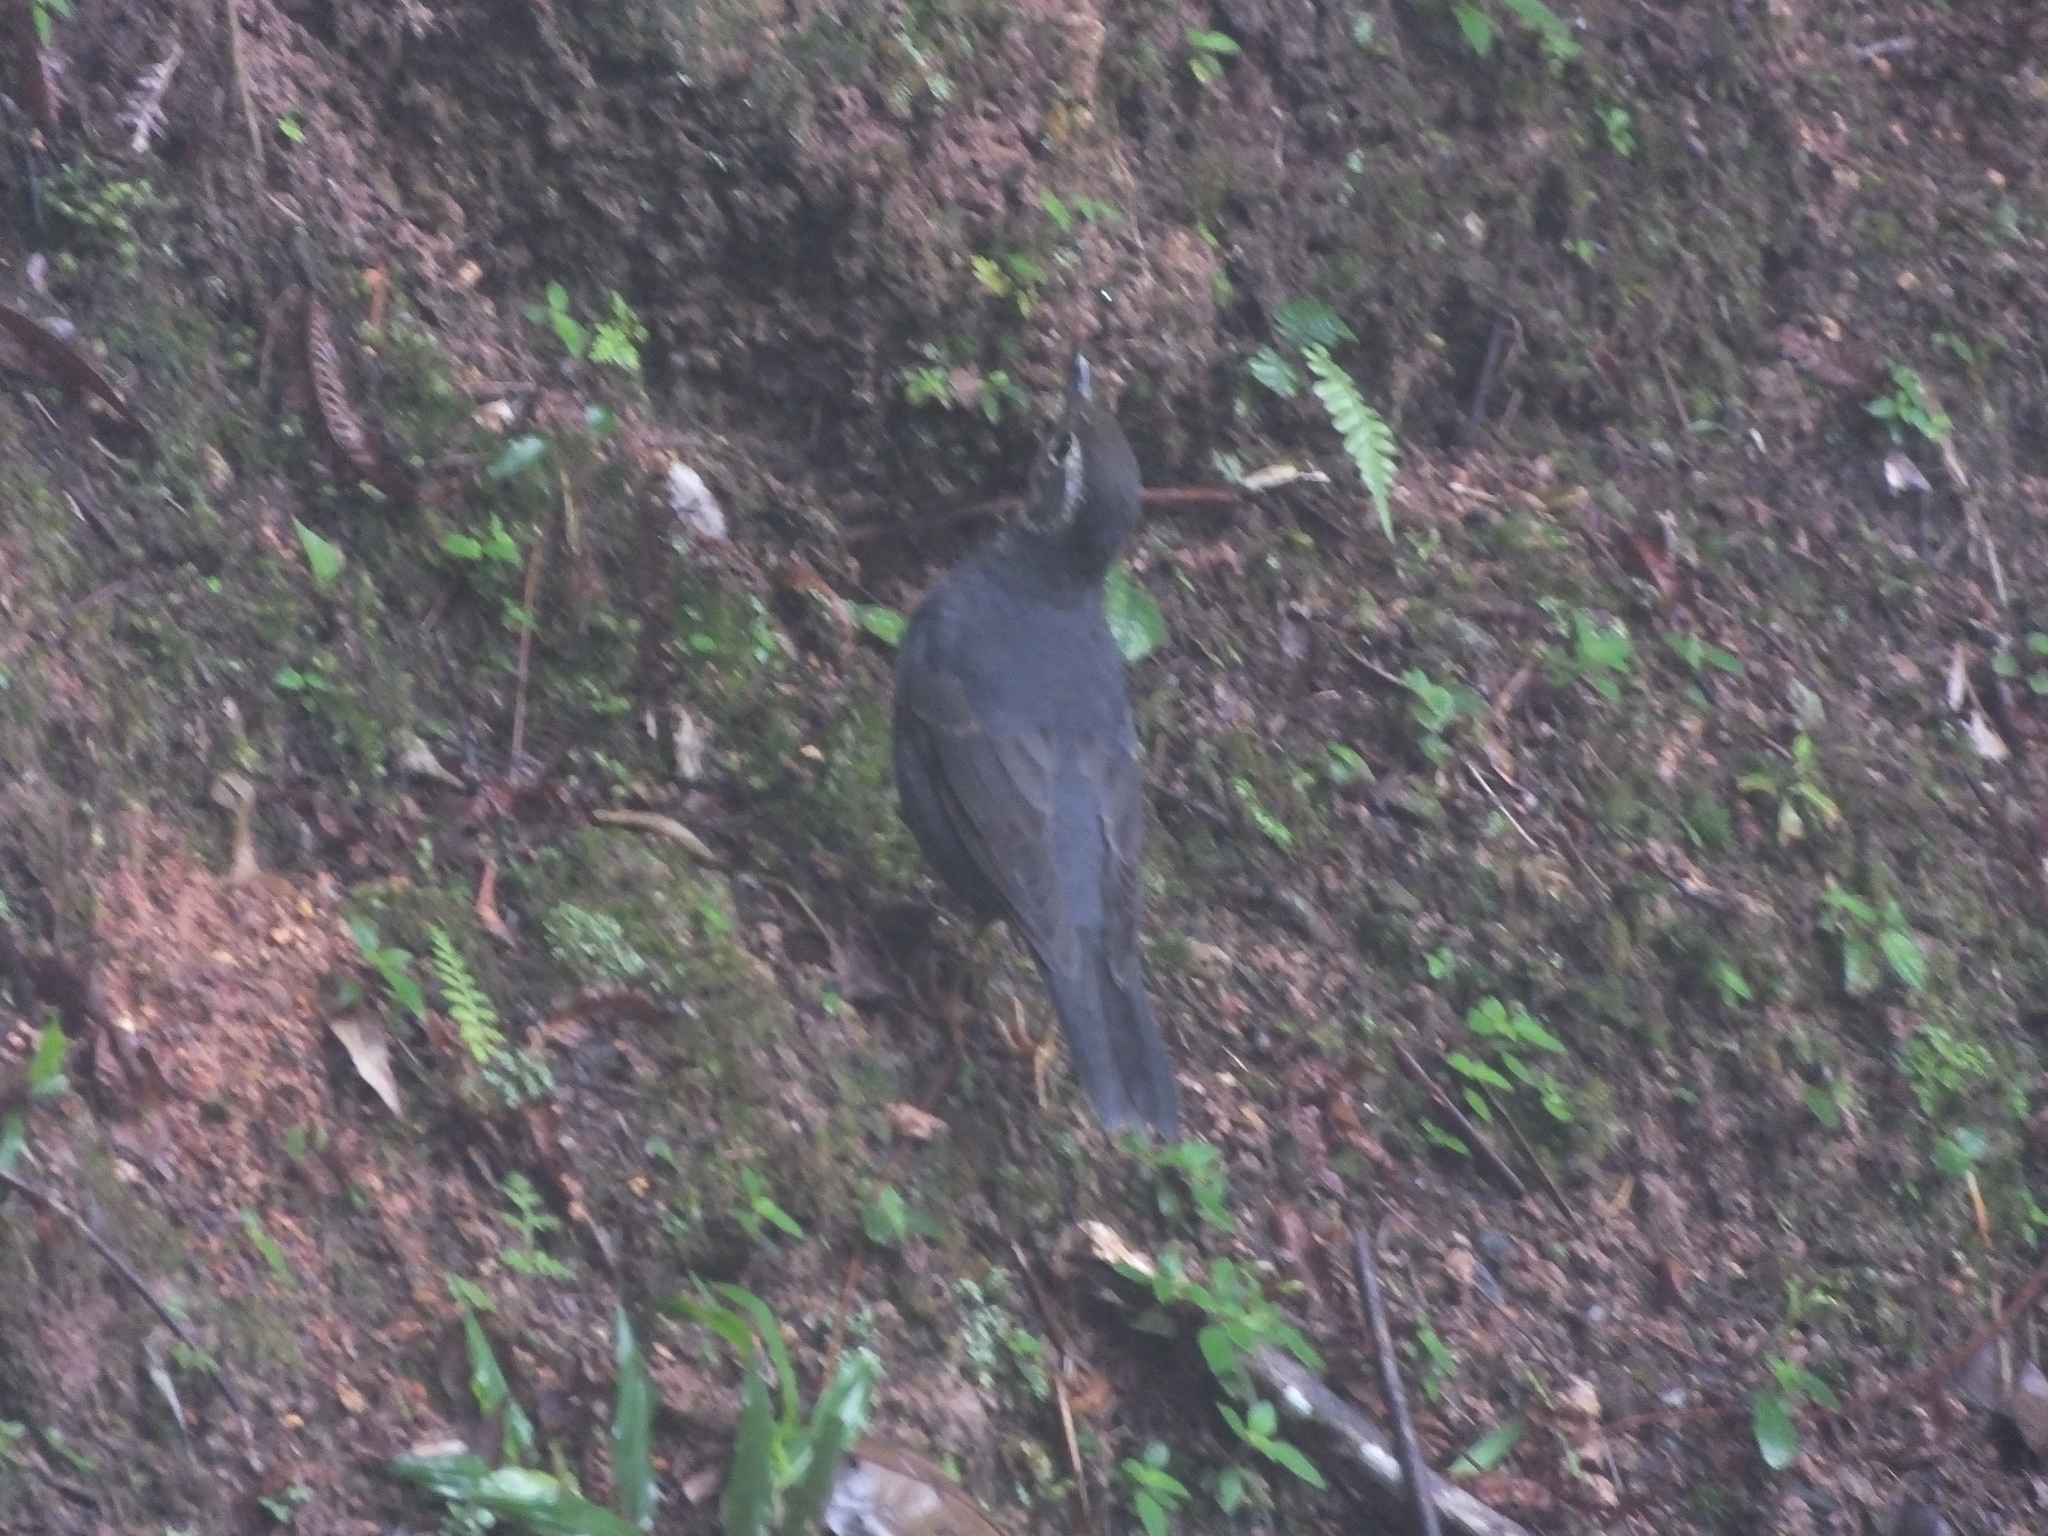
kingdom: Animalia
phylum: Chordata
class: Aves
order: Passeriformes
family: Turdidae
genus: Geokichla
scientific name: Geokichla sibirica
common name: Siberian thrush
